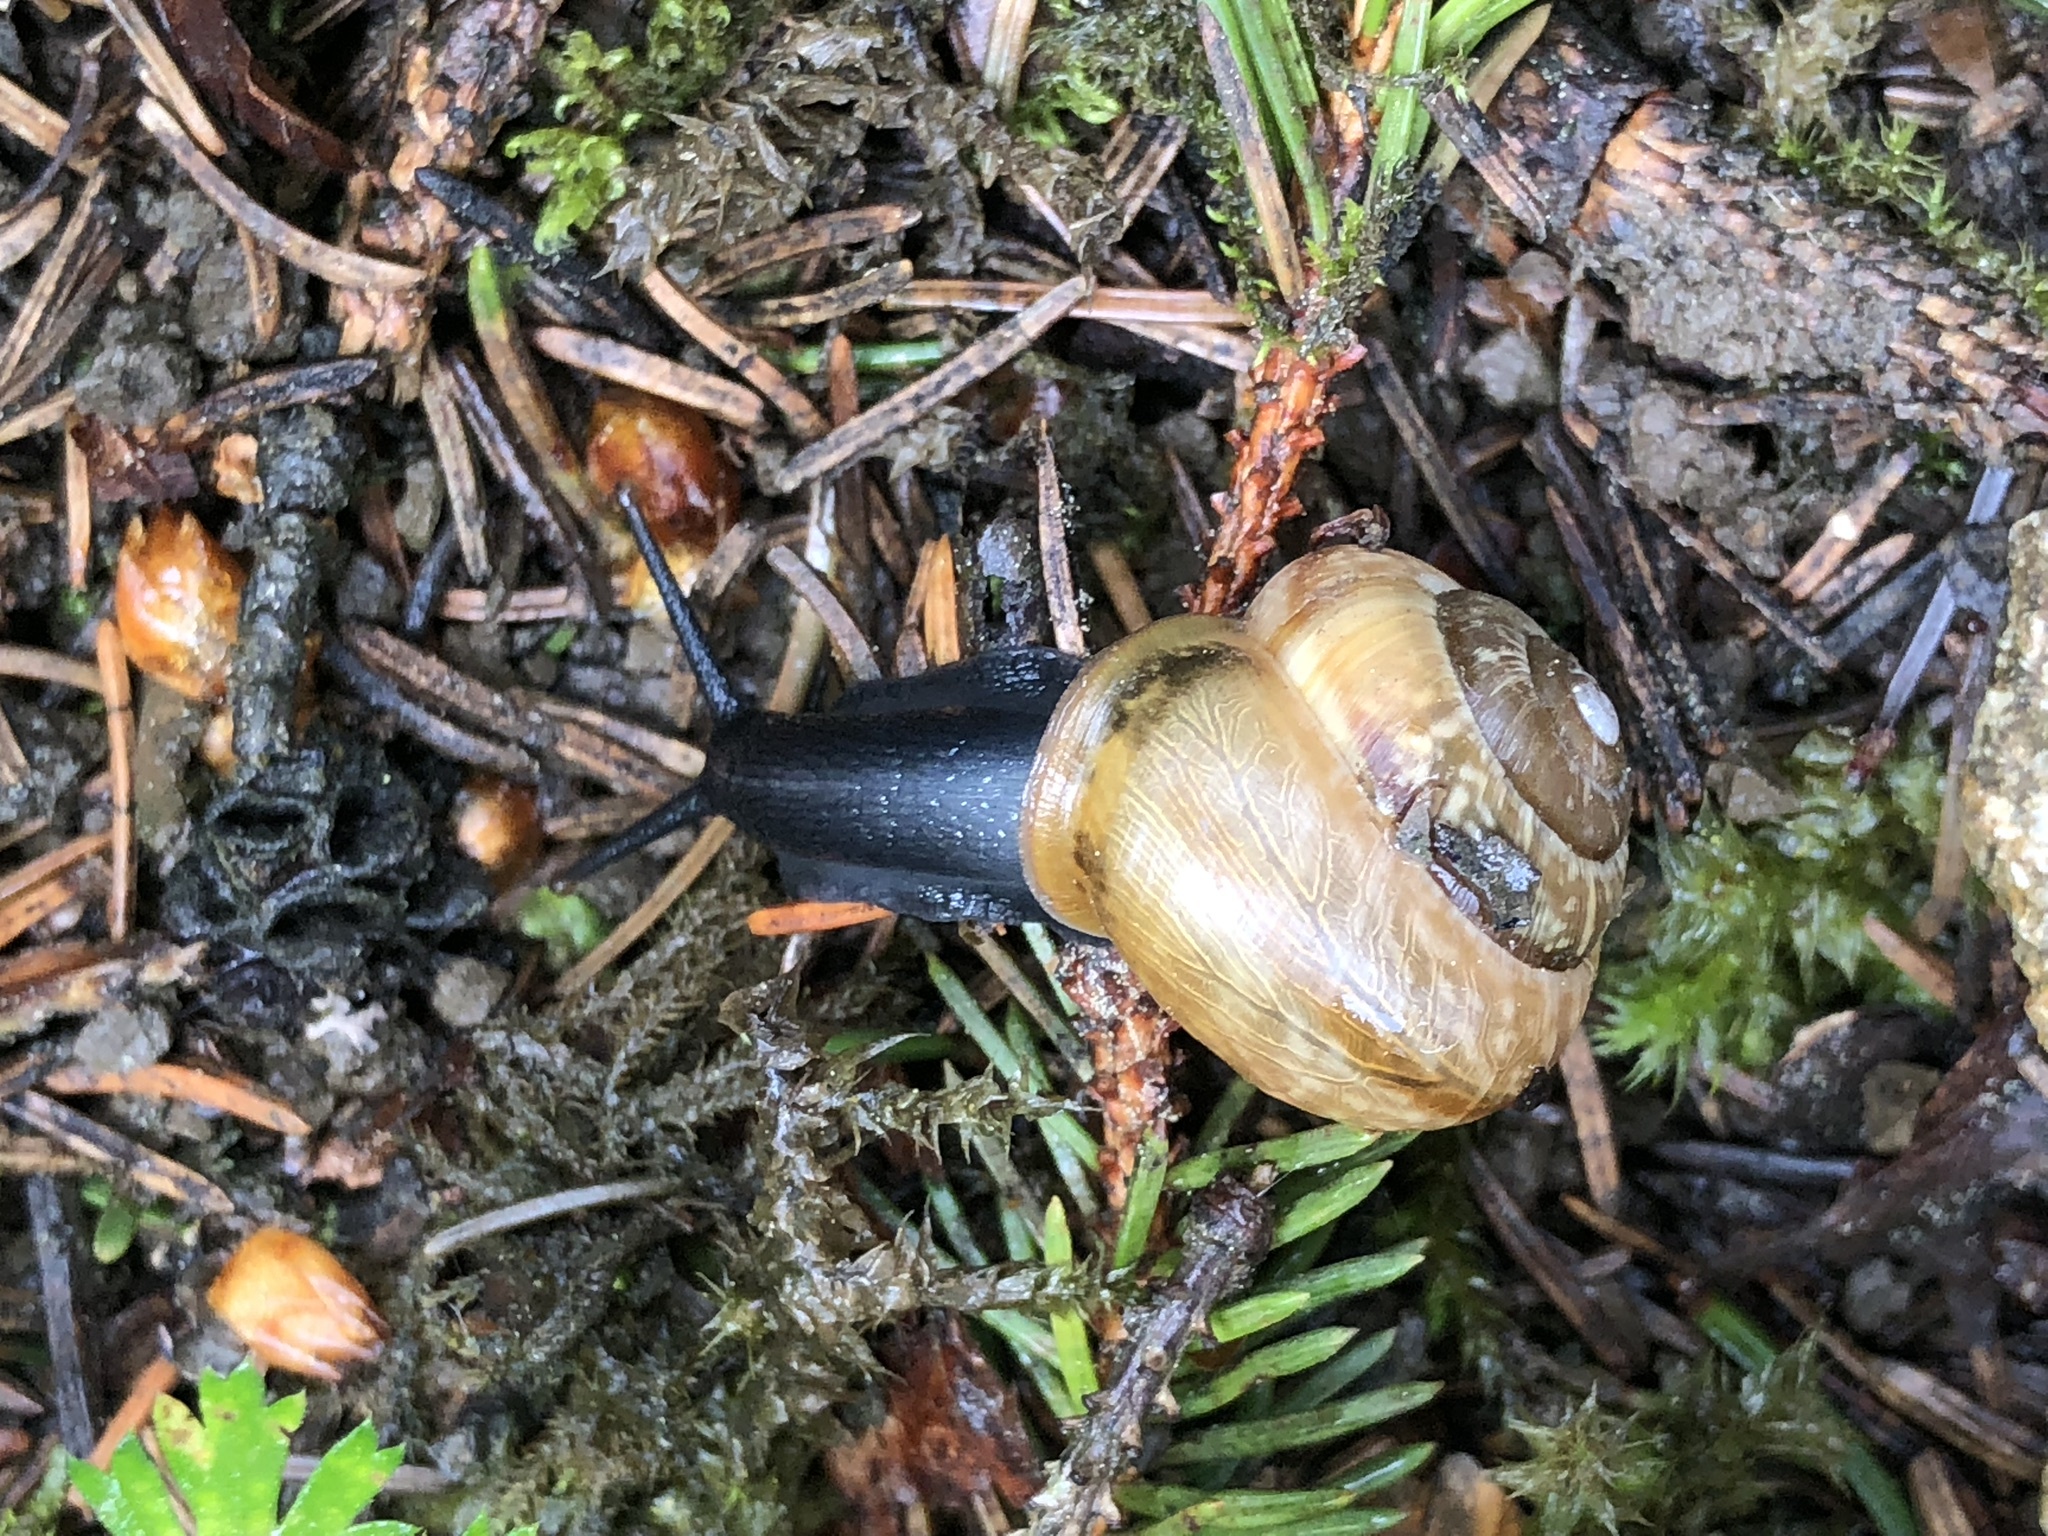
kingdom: Animalia
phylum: Mollusca
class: Gastropoda
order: Stylommatophora
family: Helicidae
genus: Arianta
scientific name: Arianta arbustorum
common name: Copse snail
